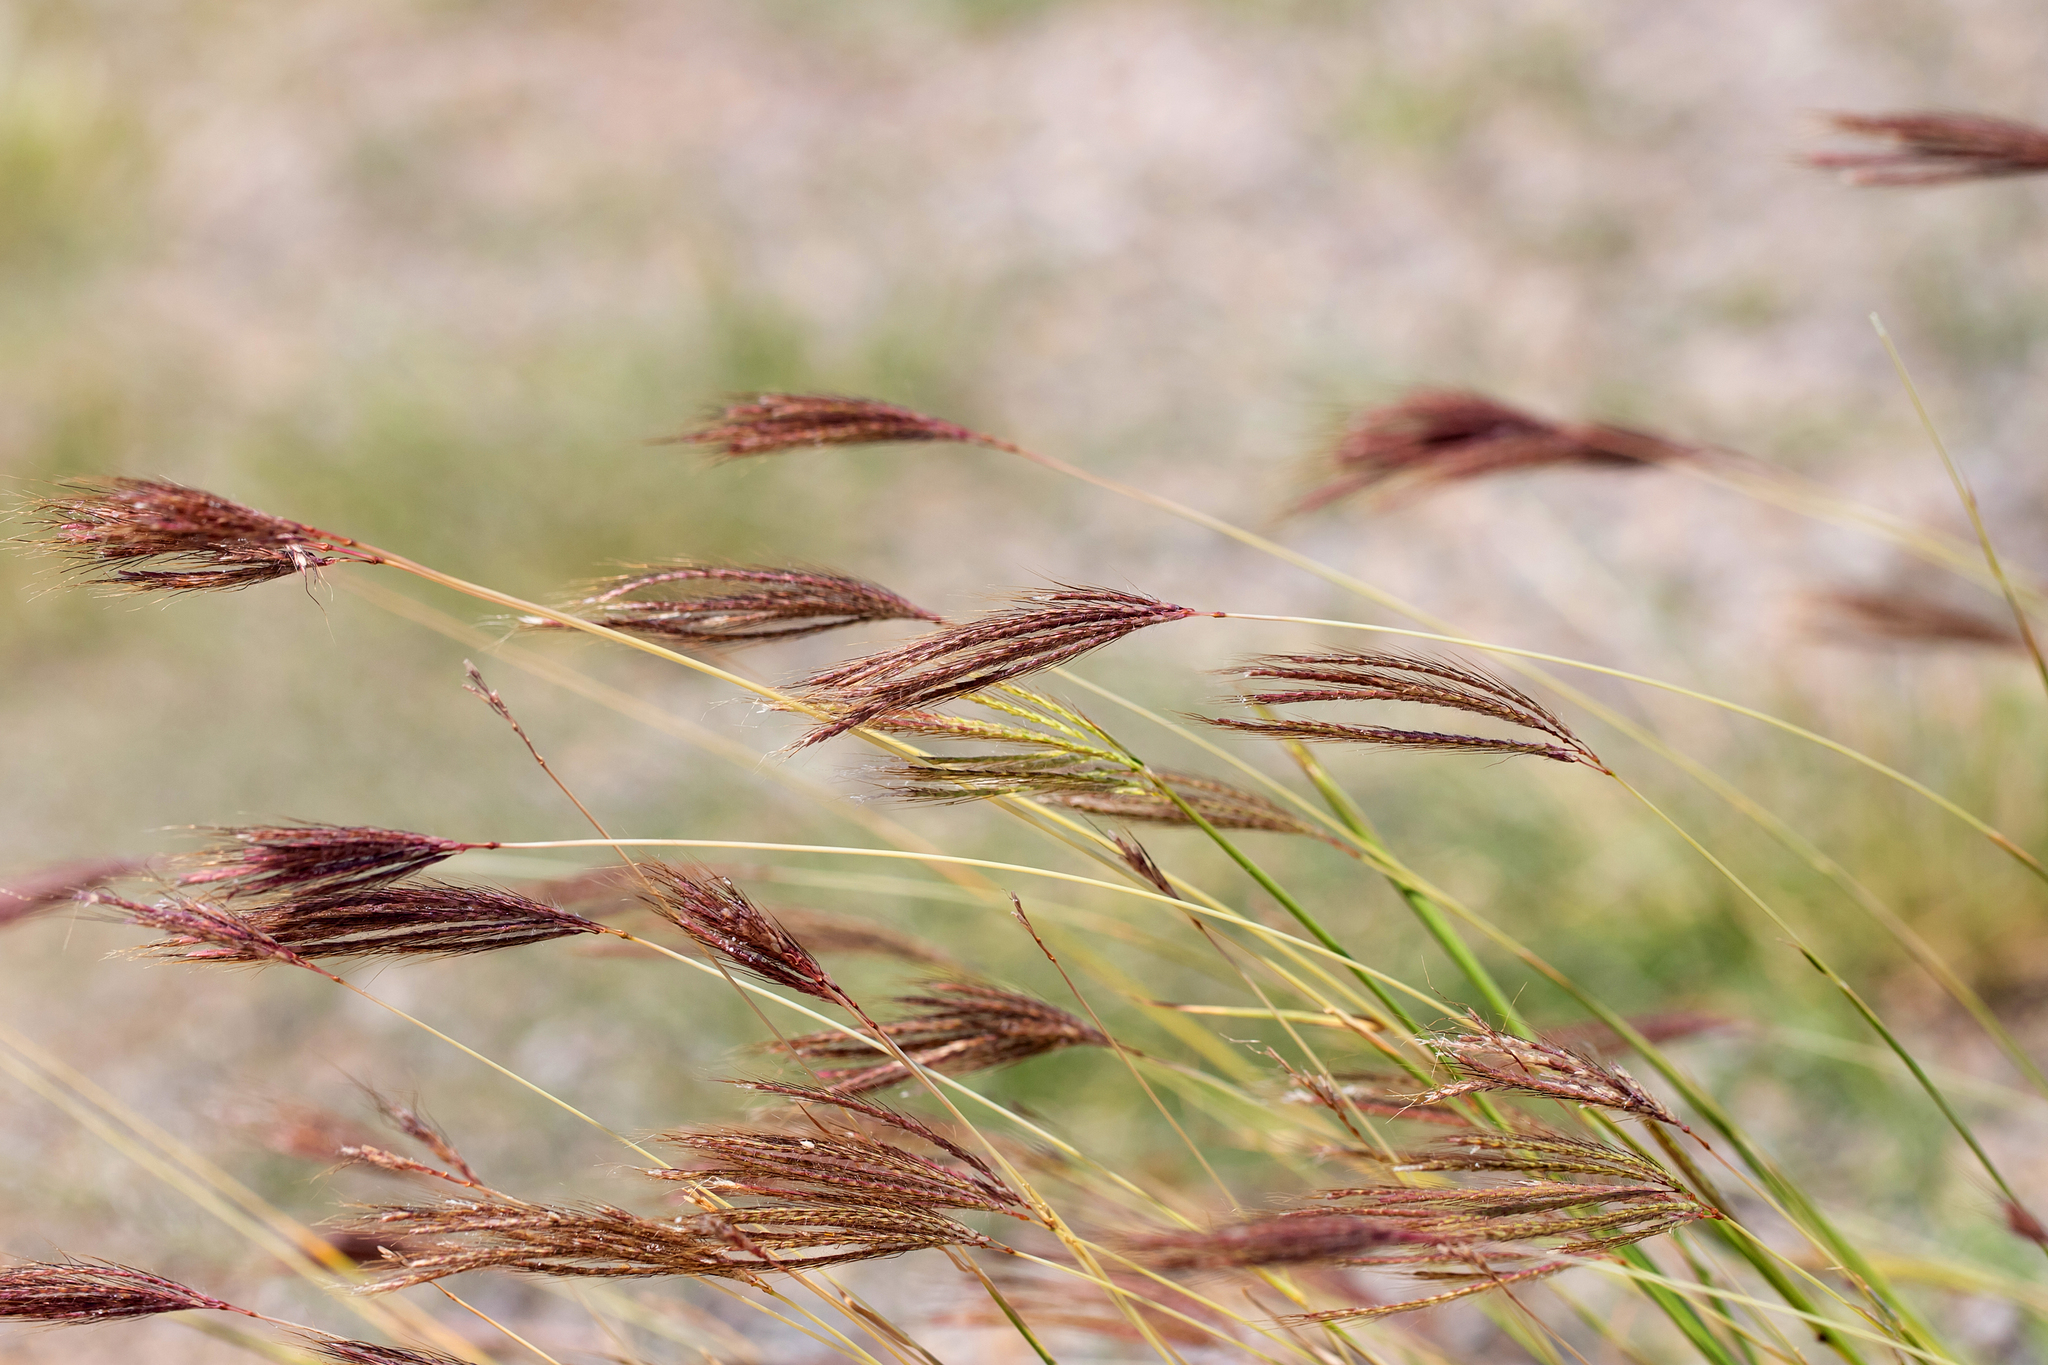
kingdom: Plantae
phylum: Tracheophyta
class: Liliopsida
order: Poales
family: Poaceae
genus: Bothriochloa
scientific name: Bothriochloa ewartiana
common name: Desert-bluegrass
